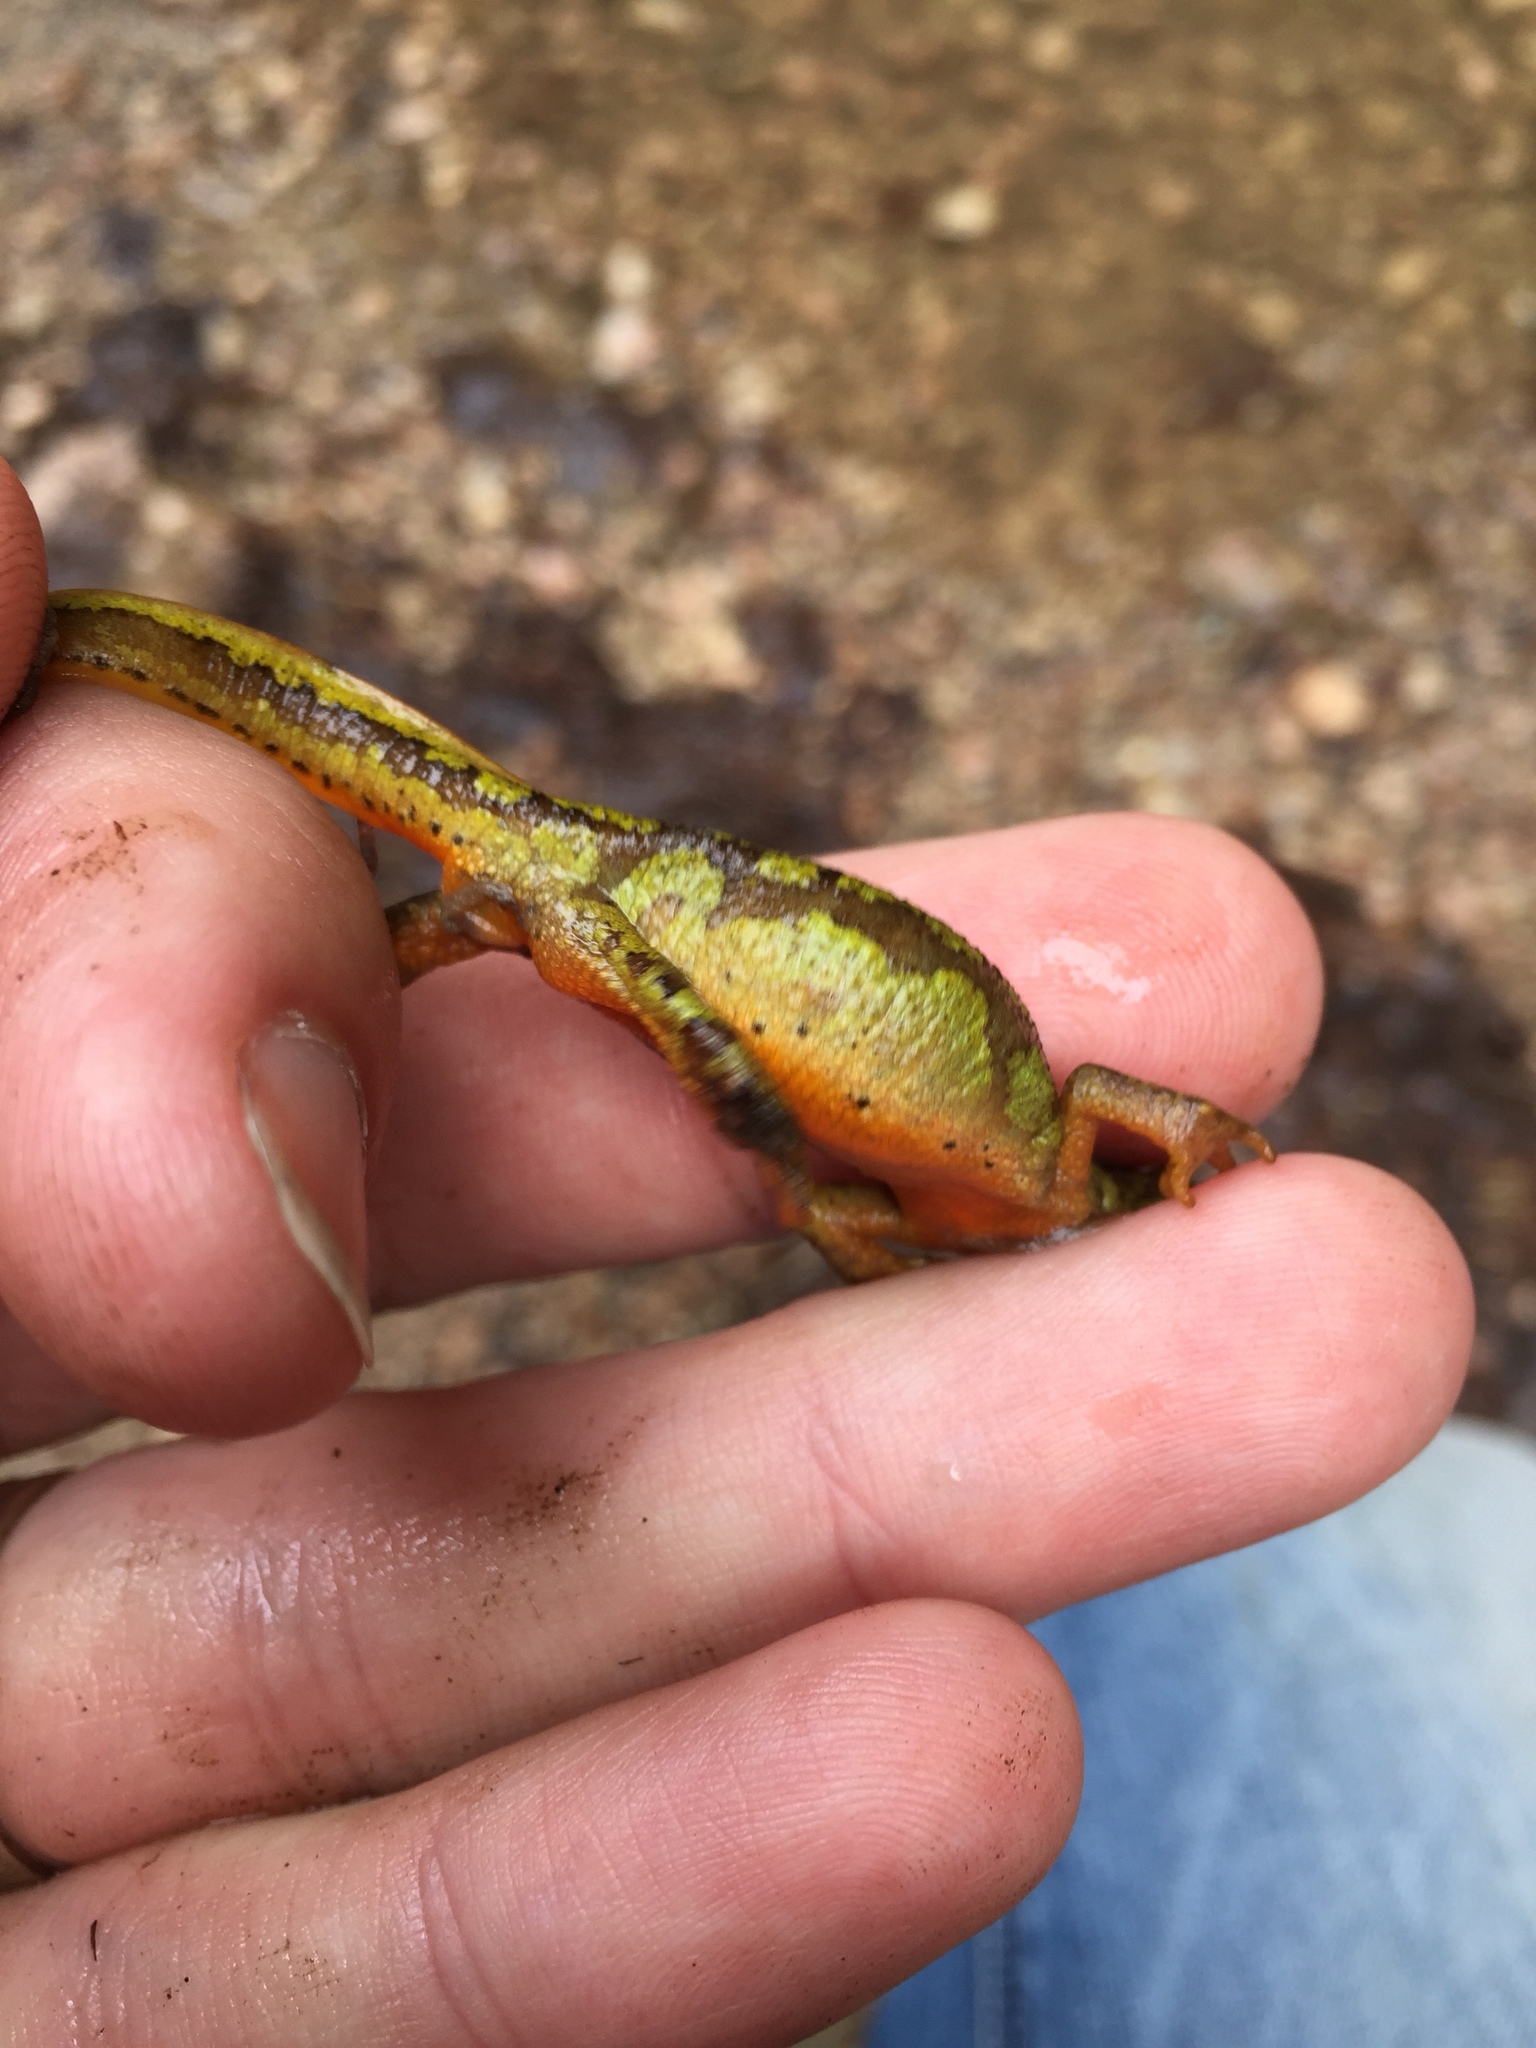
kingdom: Animalia
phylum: Chordata
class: Amphibia
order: Caudata
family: Salamandridae
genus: Lissotriton
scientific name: Lissotriton montandoni
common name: Carpathian newt
